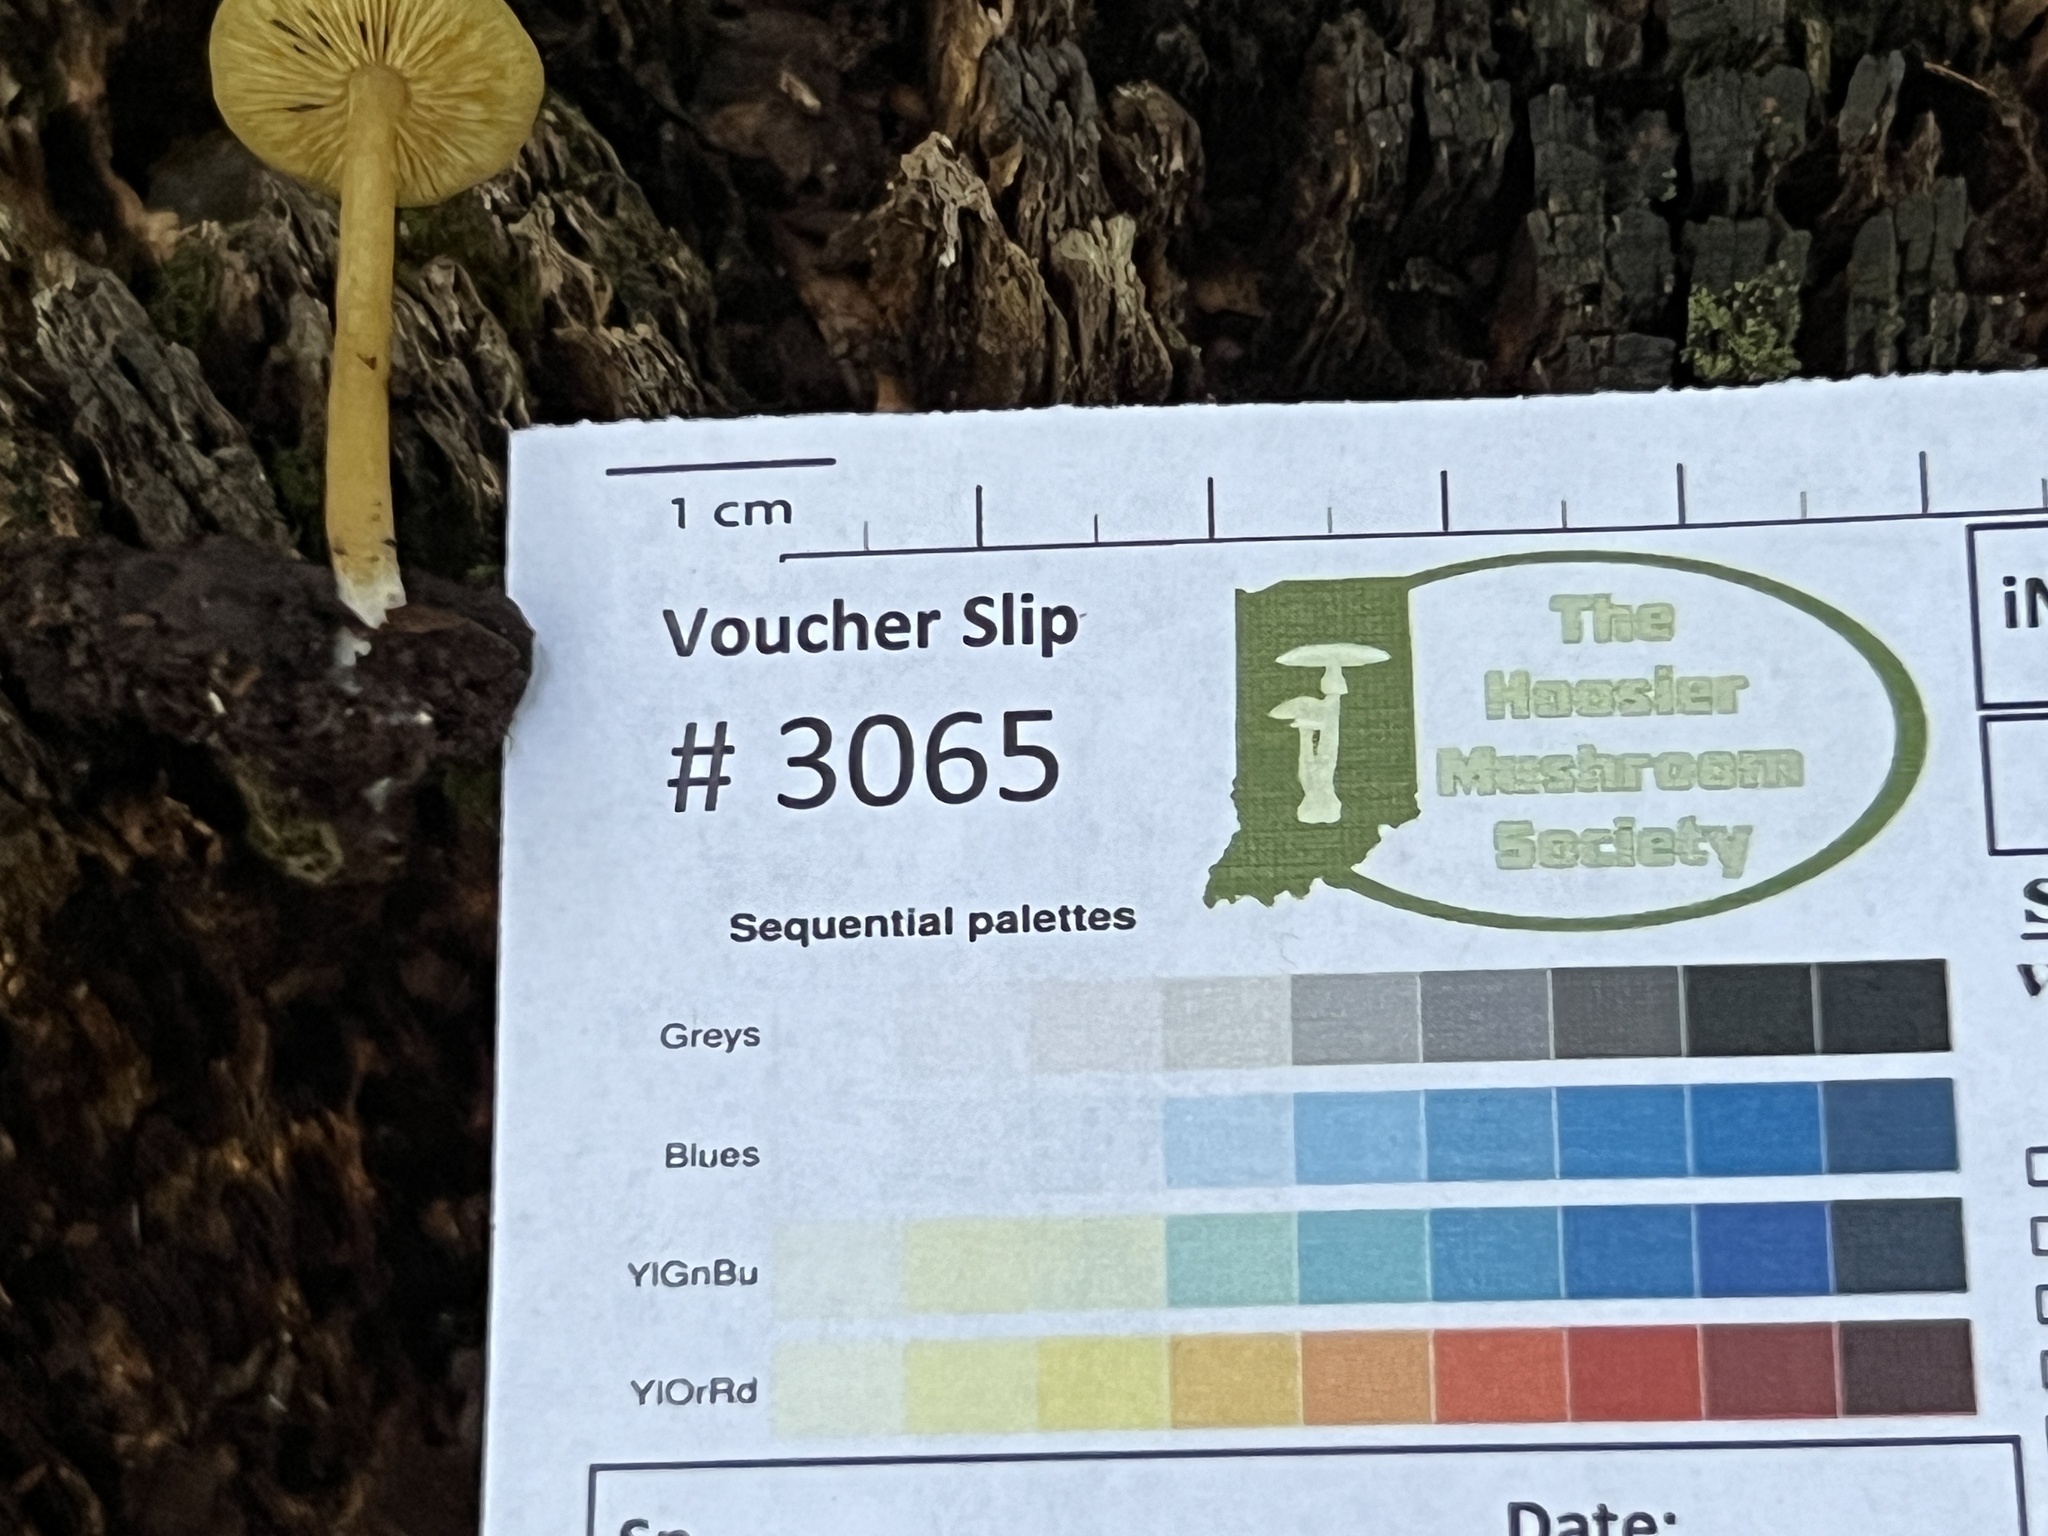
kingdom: Fungi
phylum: Basidiomycota
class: Agaricomycetes
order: Agaricales
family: Callistosporiaceae
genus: Callistosporium
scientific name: Callistosporium luteo-olivaceum
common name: Olive lute
